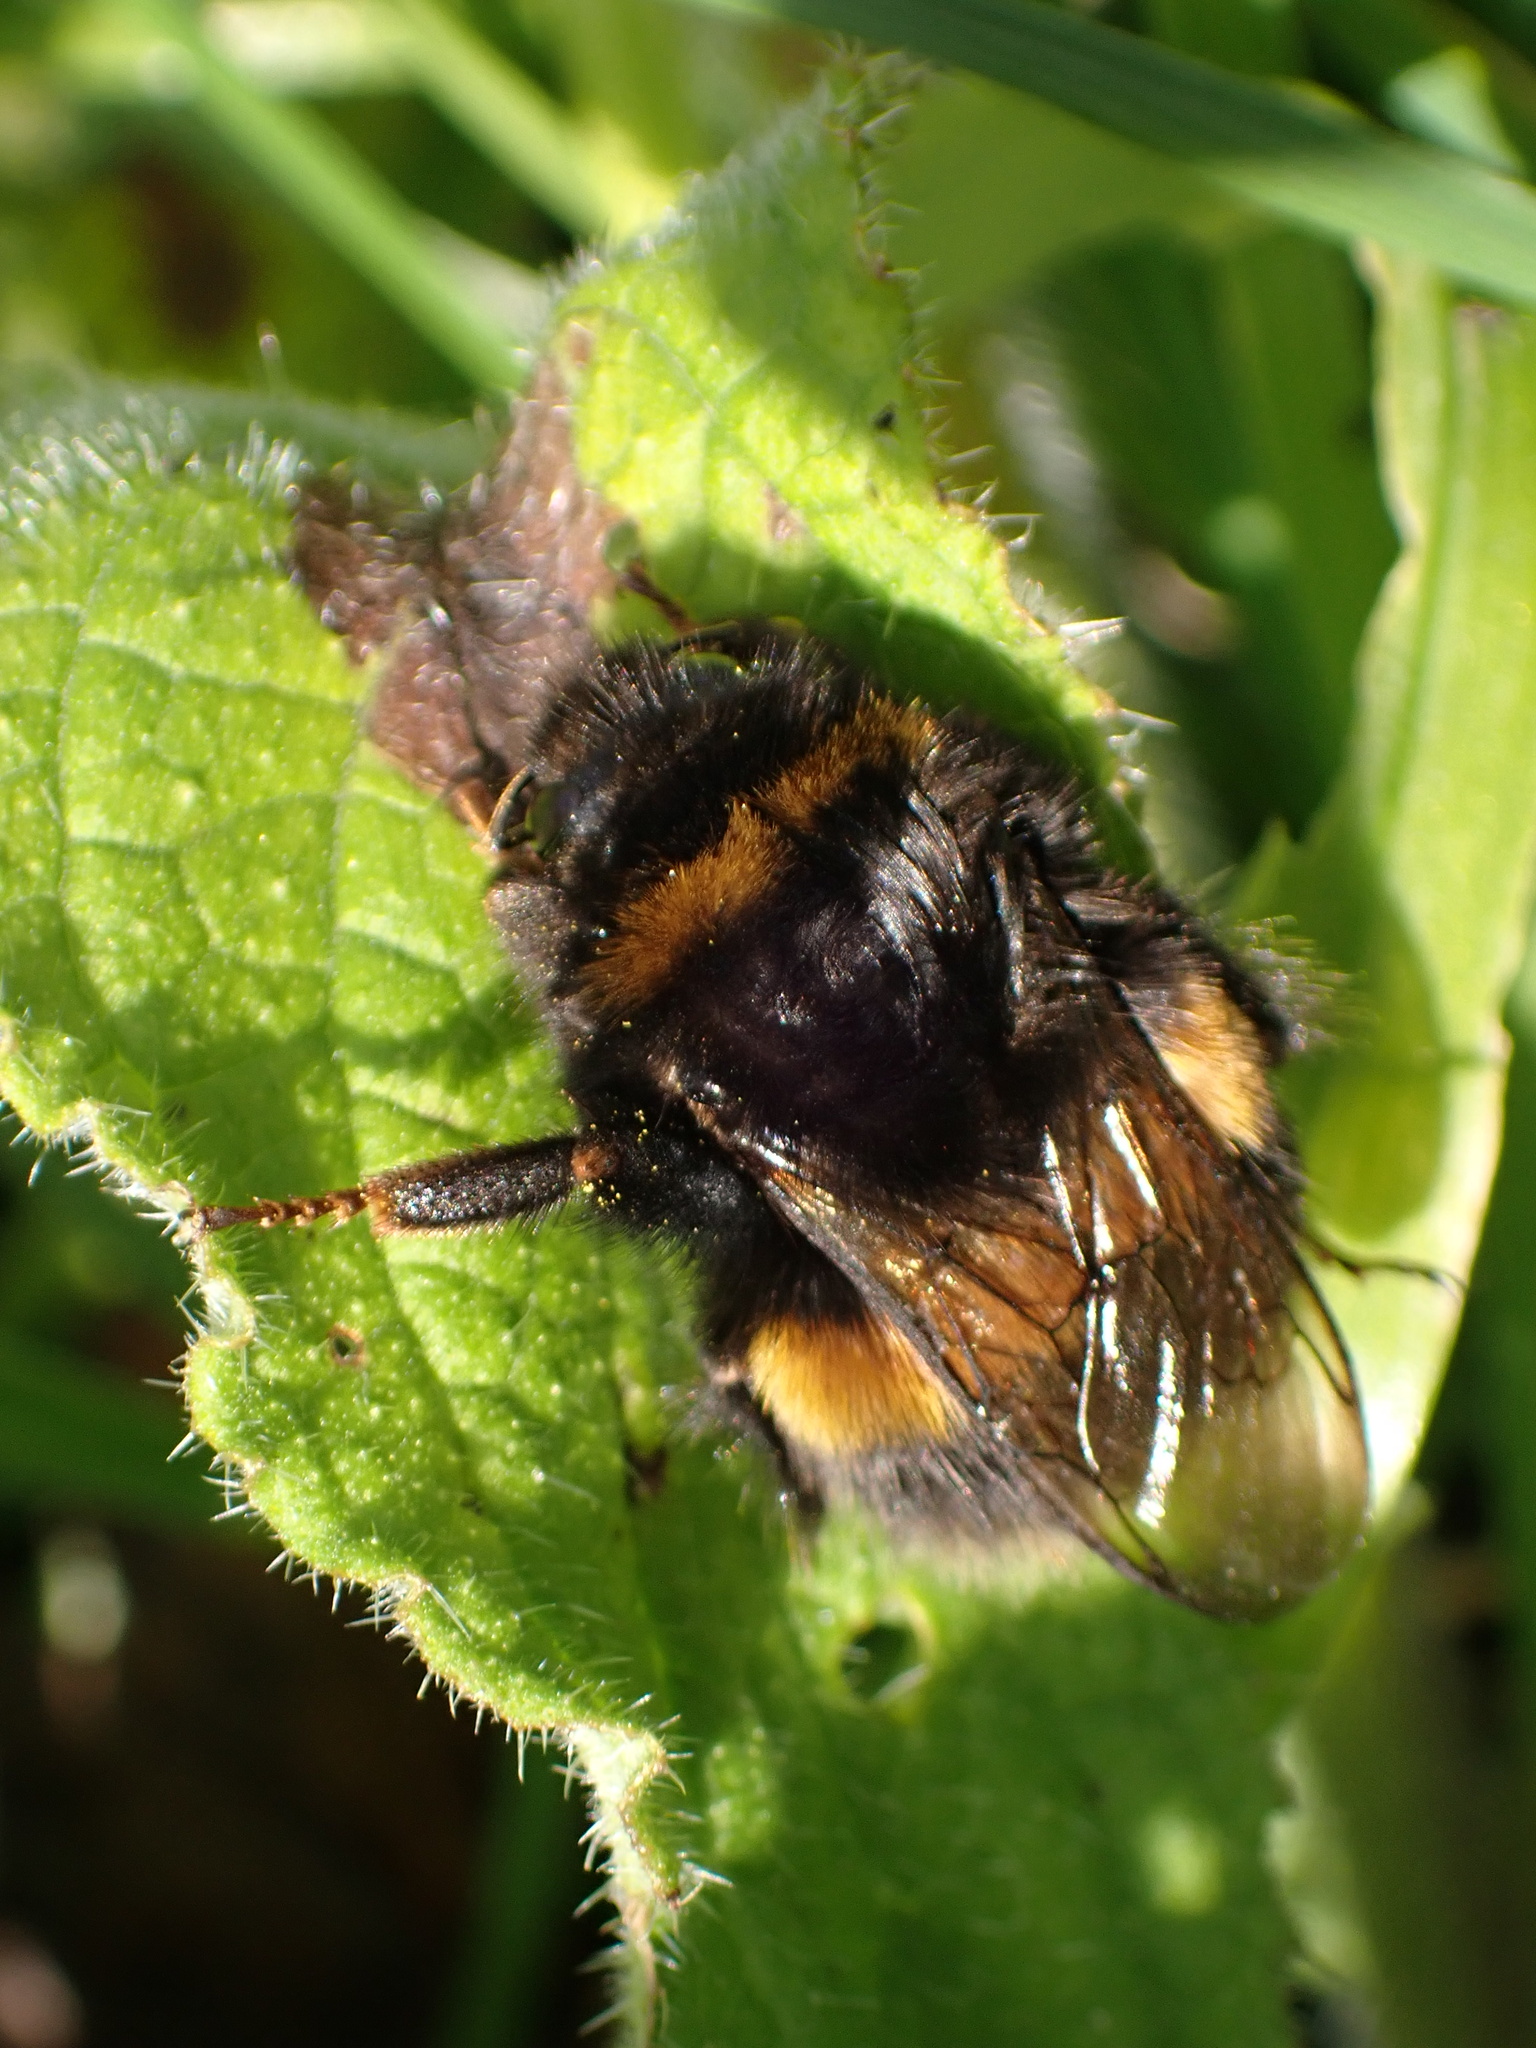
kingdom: Animalia
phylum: Arthropoda
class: Insecta
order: Hymenoptera
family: Apidae
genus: Bombus
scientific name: Bombus terrestris
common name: Buff-tailed bumblebee
